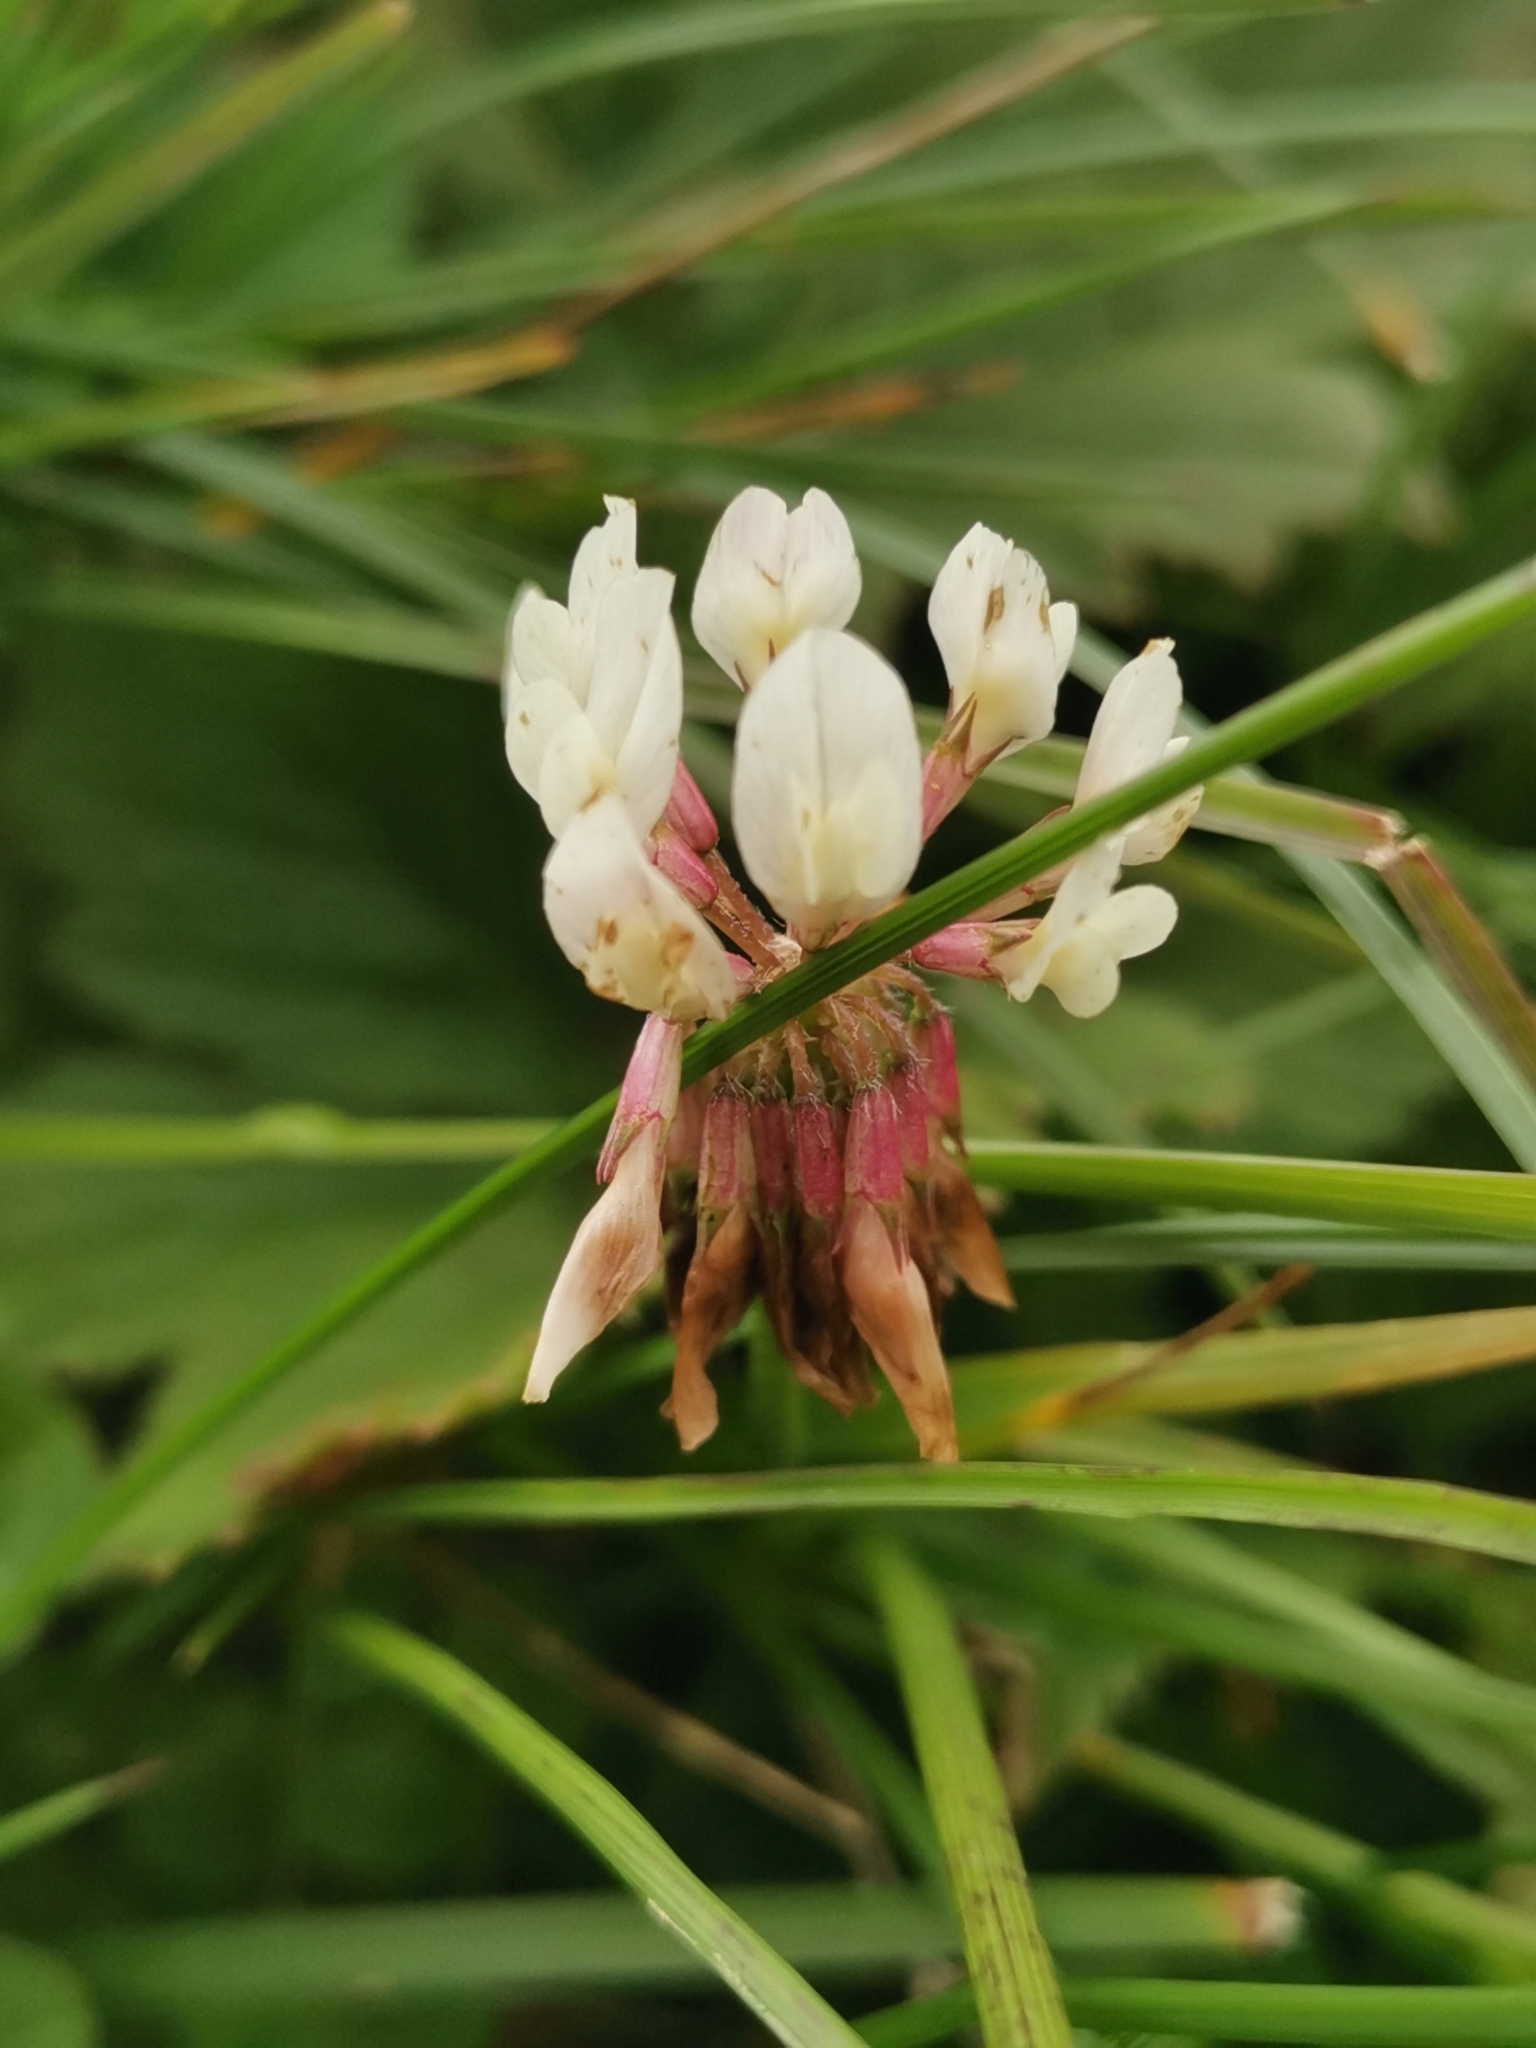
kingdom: Plantae
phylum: Tracheophyta
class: Magnoliopsida
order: Fabales
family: Fabaceae
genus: Trifolium
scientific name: Trifolium pallescens
